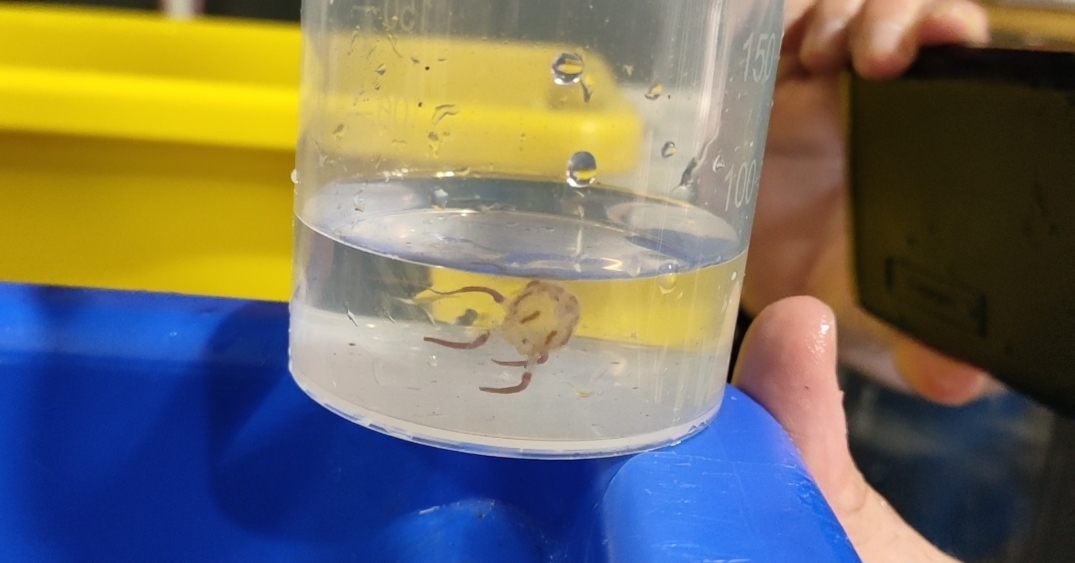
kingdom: Animalia
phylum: Cnidaria
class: Cubozoa
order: Carybdeida
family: Tripedaliidae
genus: Copula
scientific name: Copula sivickisi
